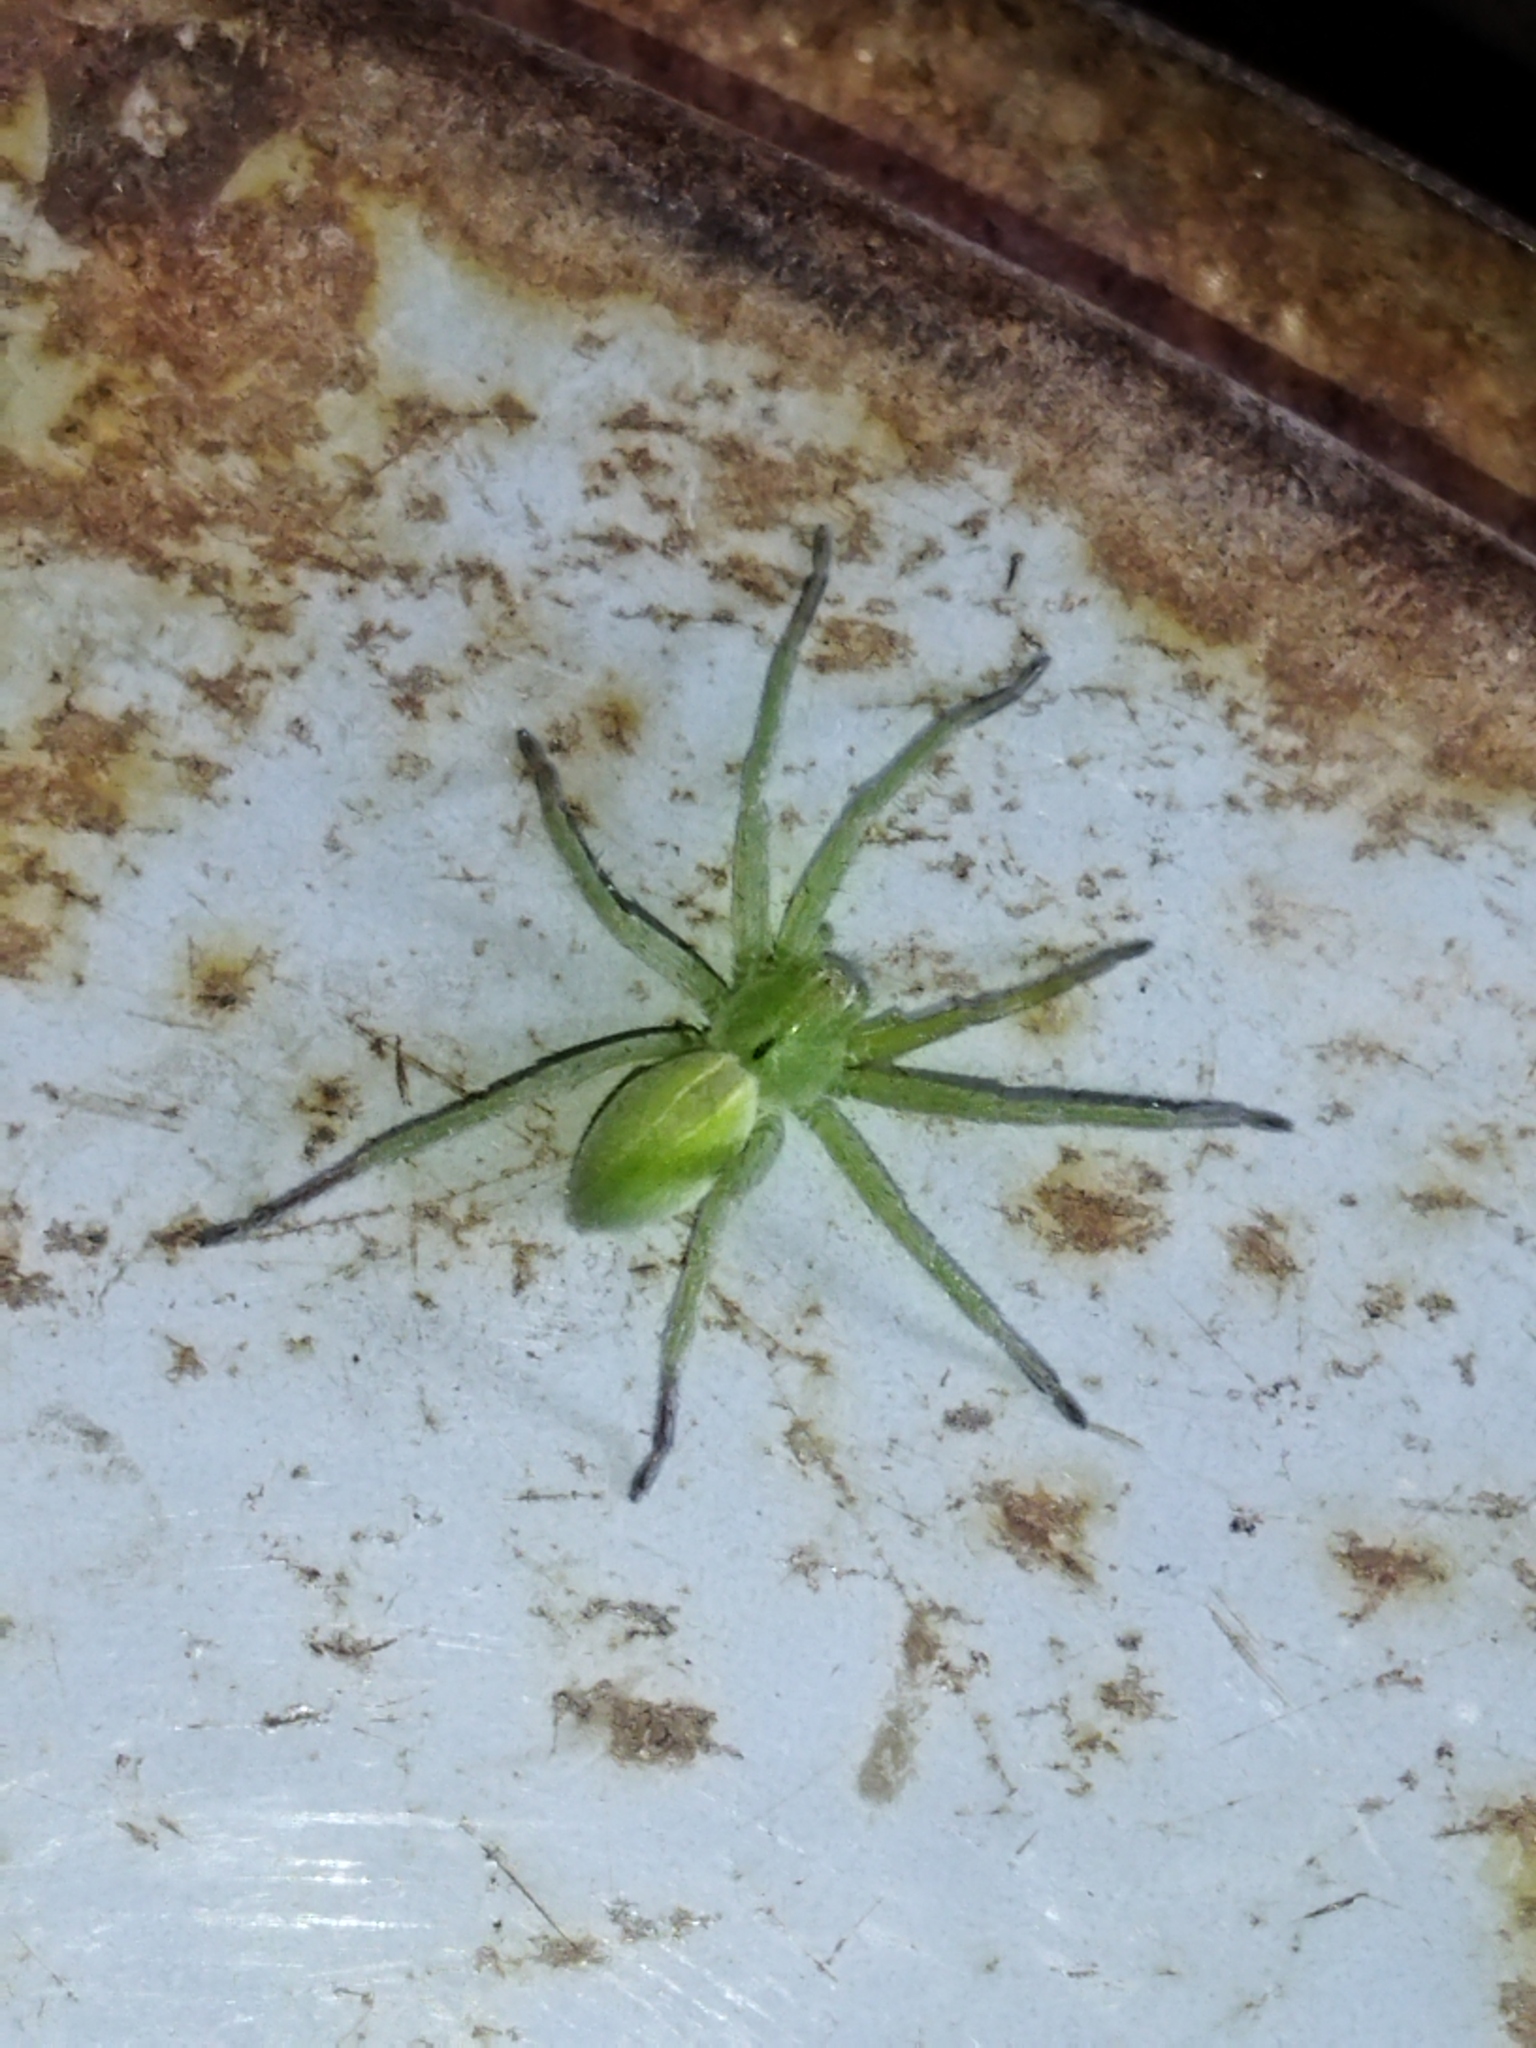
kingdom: Animalia
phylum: Arthropoda
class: Arachnida
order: Araneae
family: Sparassidae
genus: Micrommata
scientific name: Micrommata ligurina
